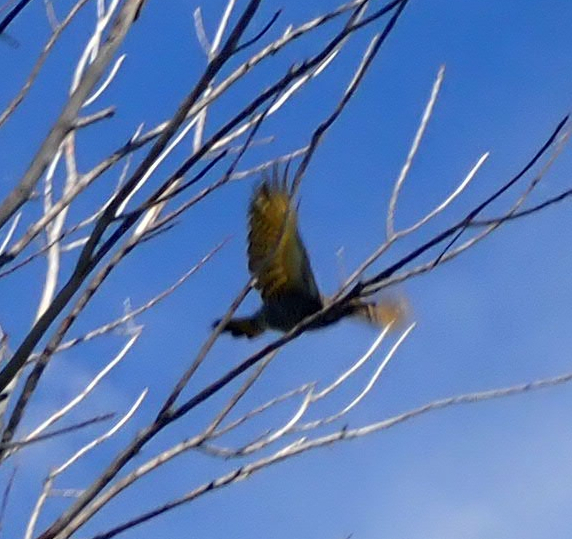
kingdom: Animalia
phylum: Chordata
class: Aves
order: Piciformes
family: Picidae
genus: Colaptes
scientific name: Colaptes auratus
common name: Northern flicker
